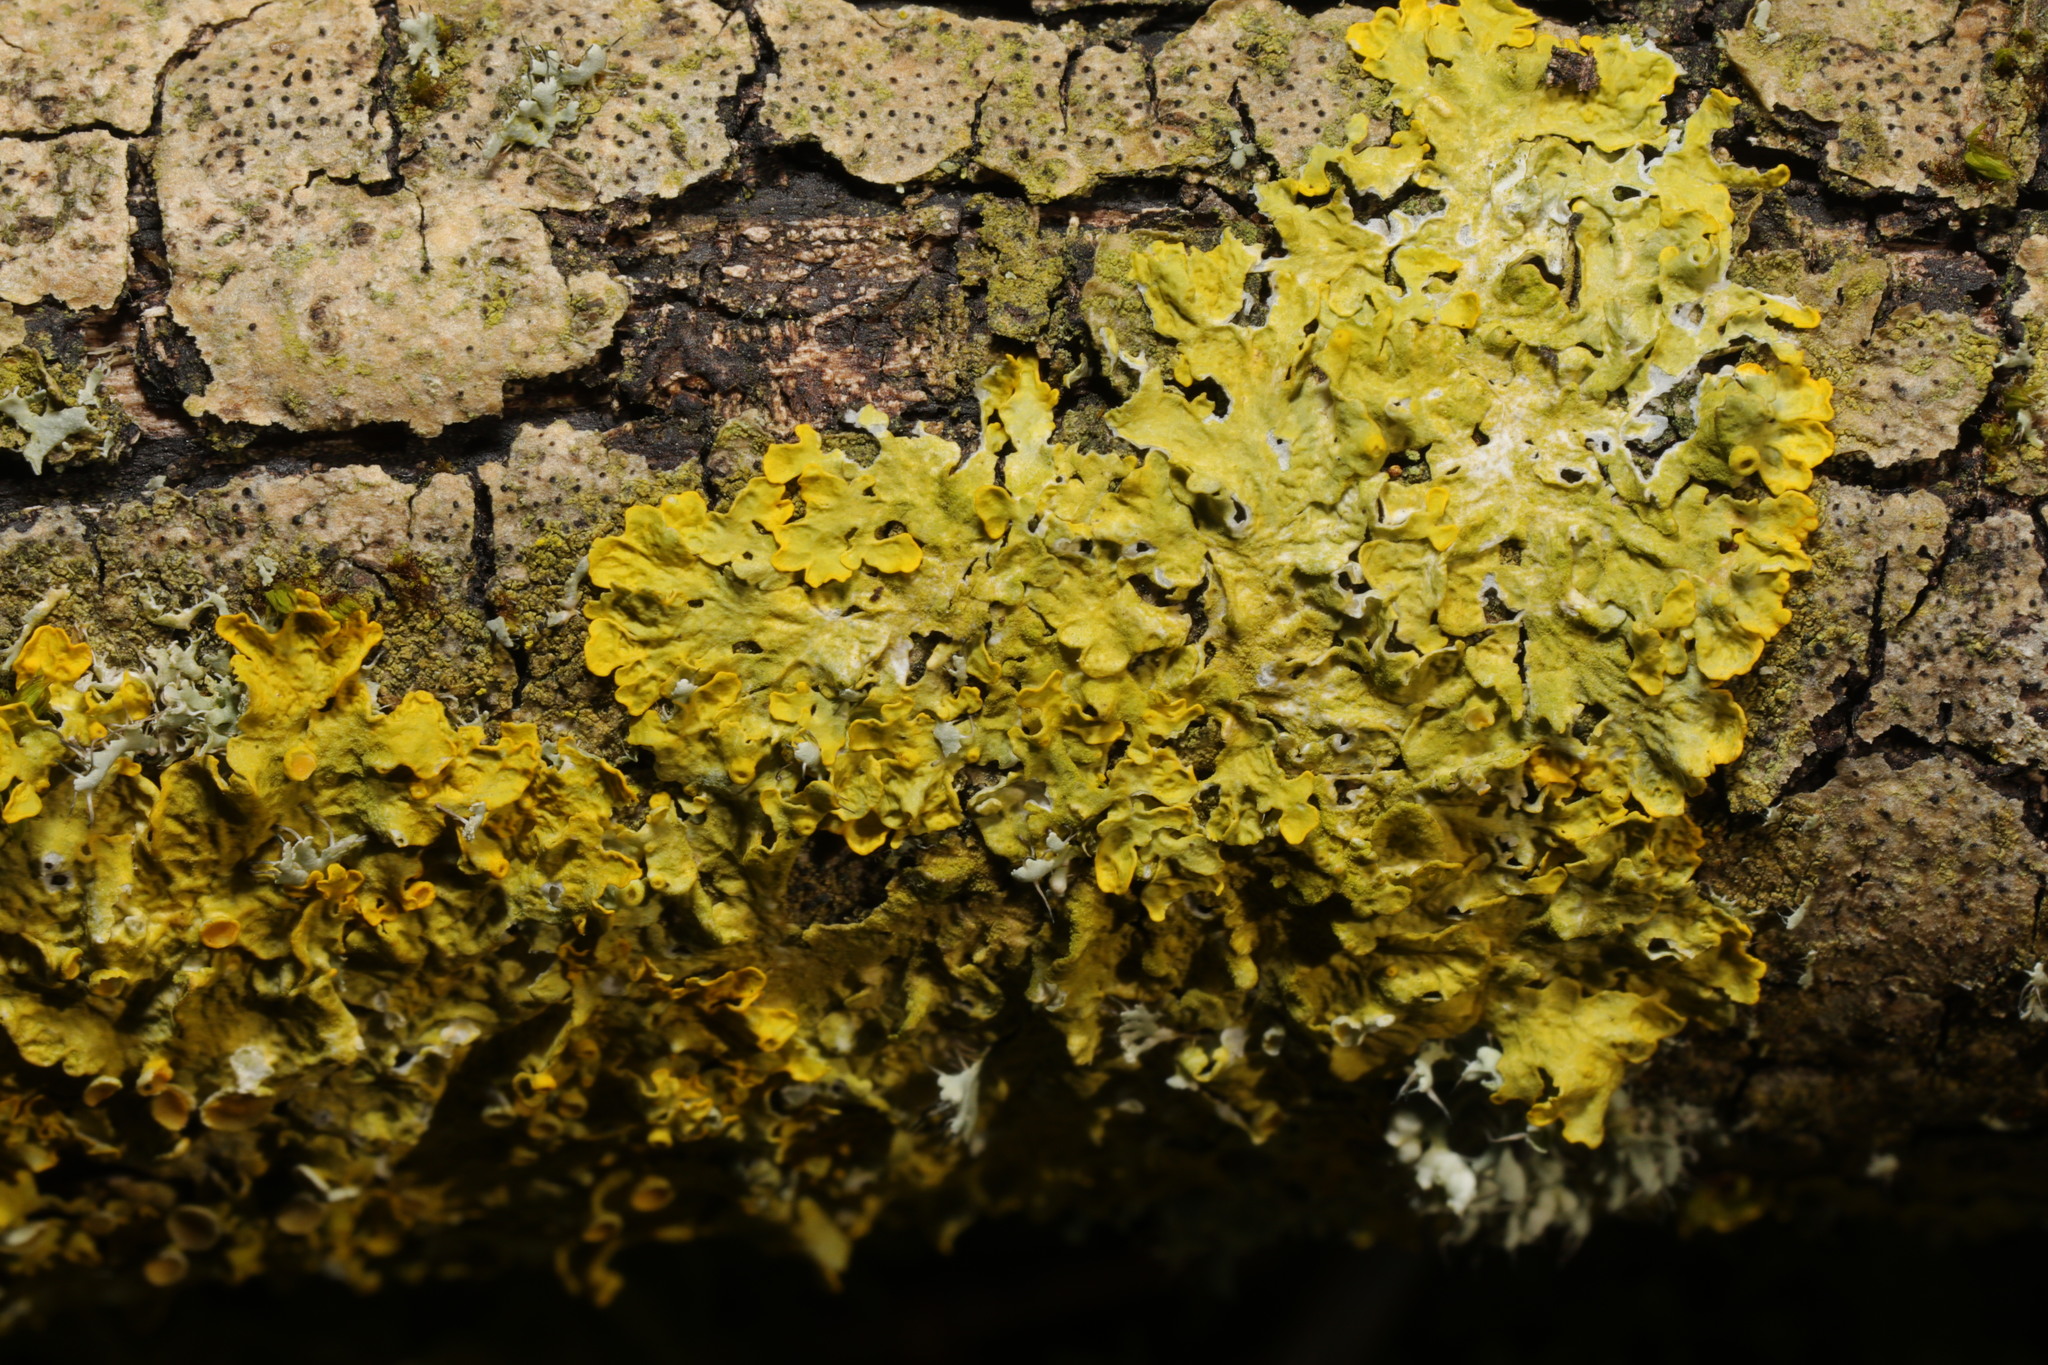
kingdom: Fungi
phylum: Ascomycota
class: Lecanoromycetes
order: Teloschistales
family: Teloschistaceae
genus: Xanthoria
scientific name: Xanthoria parietina
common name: Common orange lichen
